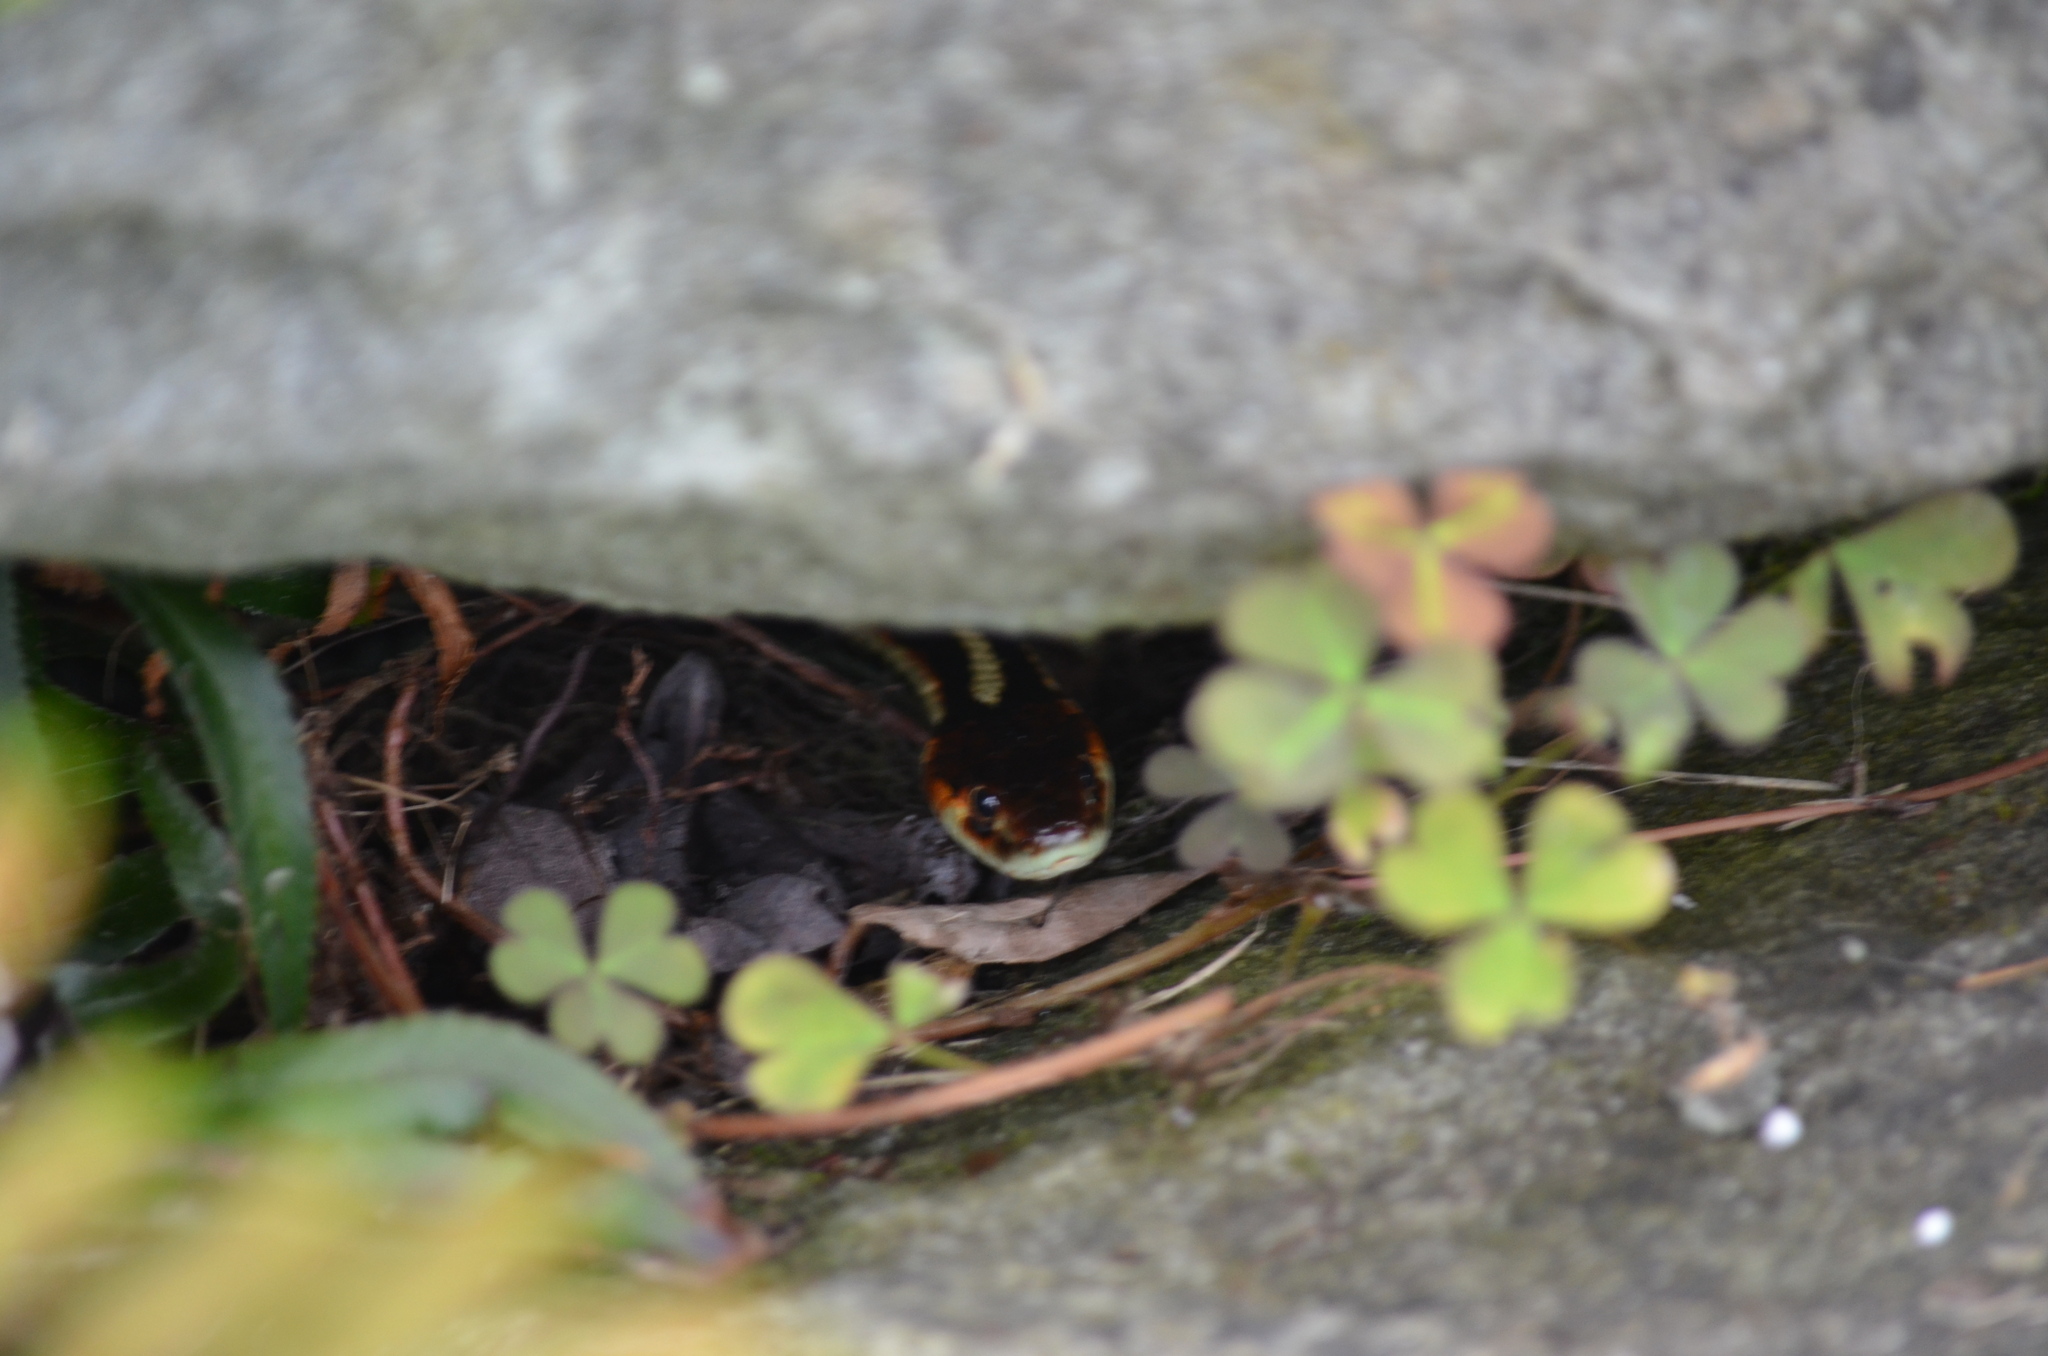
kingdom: Animalia
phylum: Chordata
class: Squamata
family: Colubridae
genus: Thamnophis
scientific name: Thamnophis sirtalis
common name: Common garter snake
